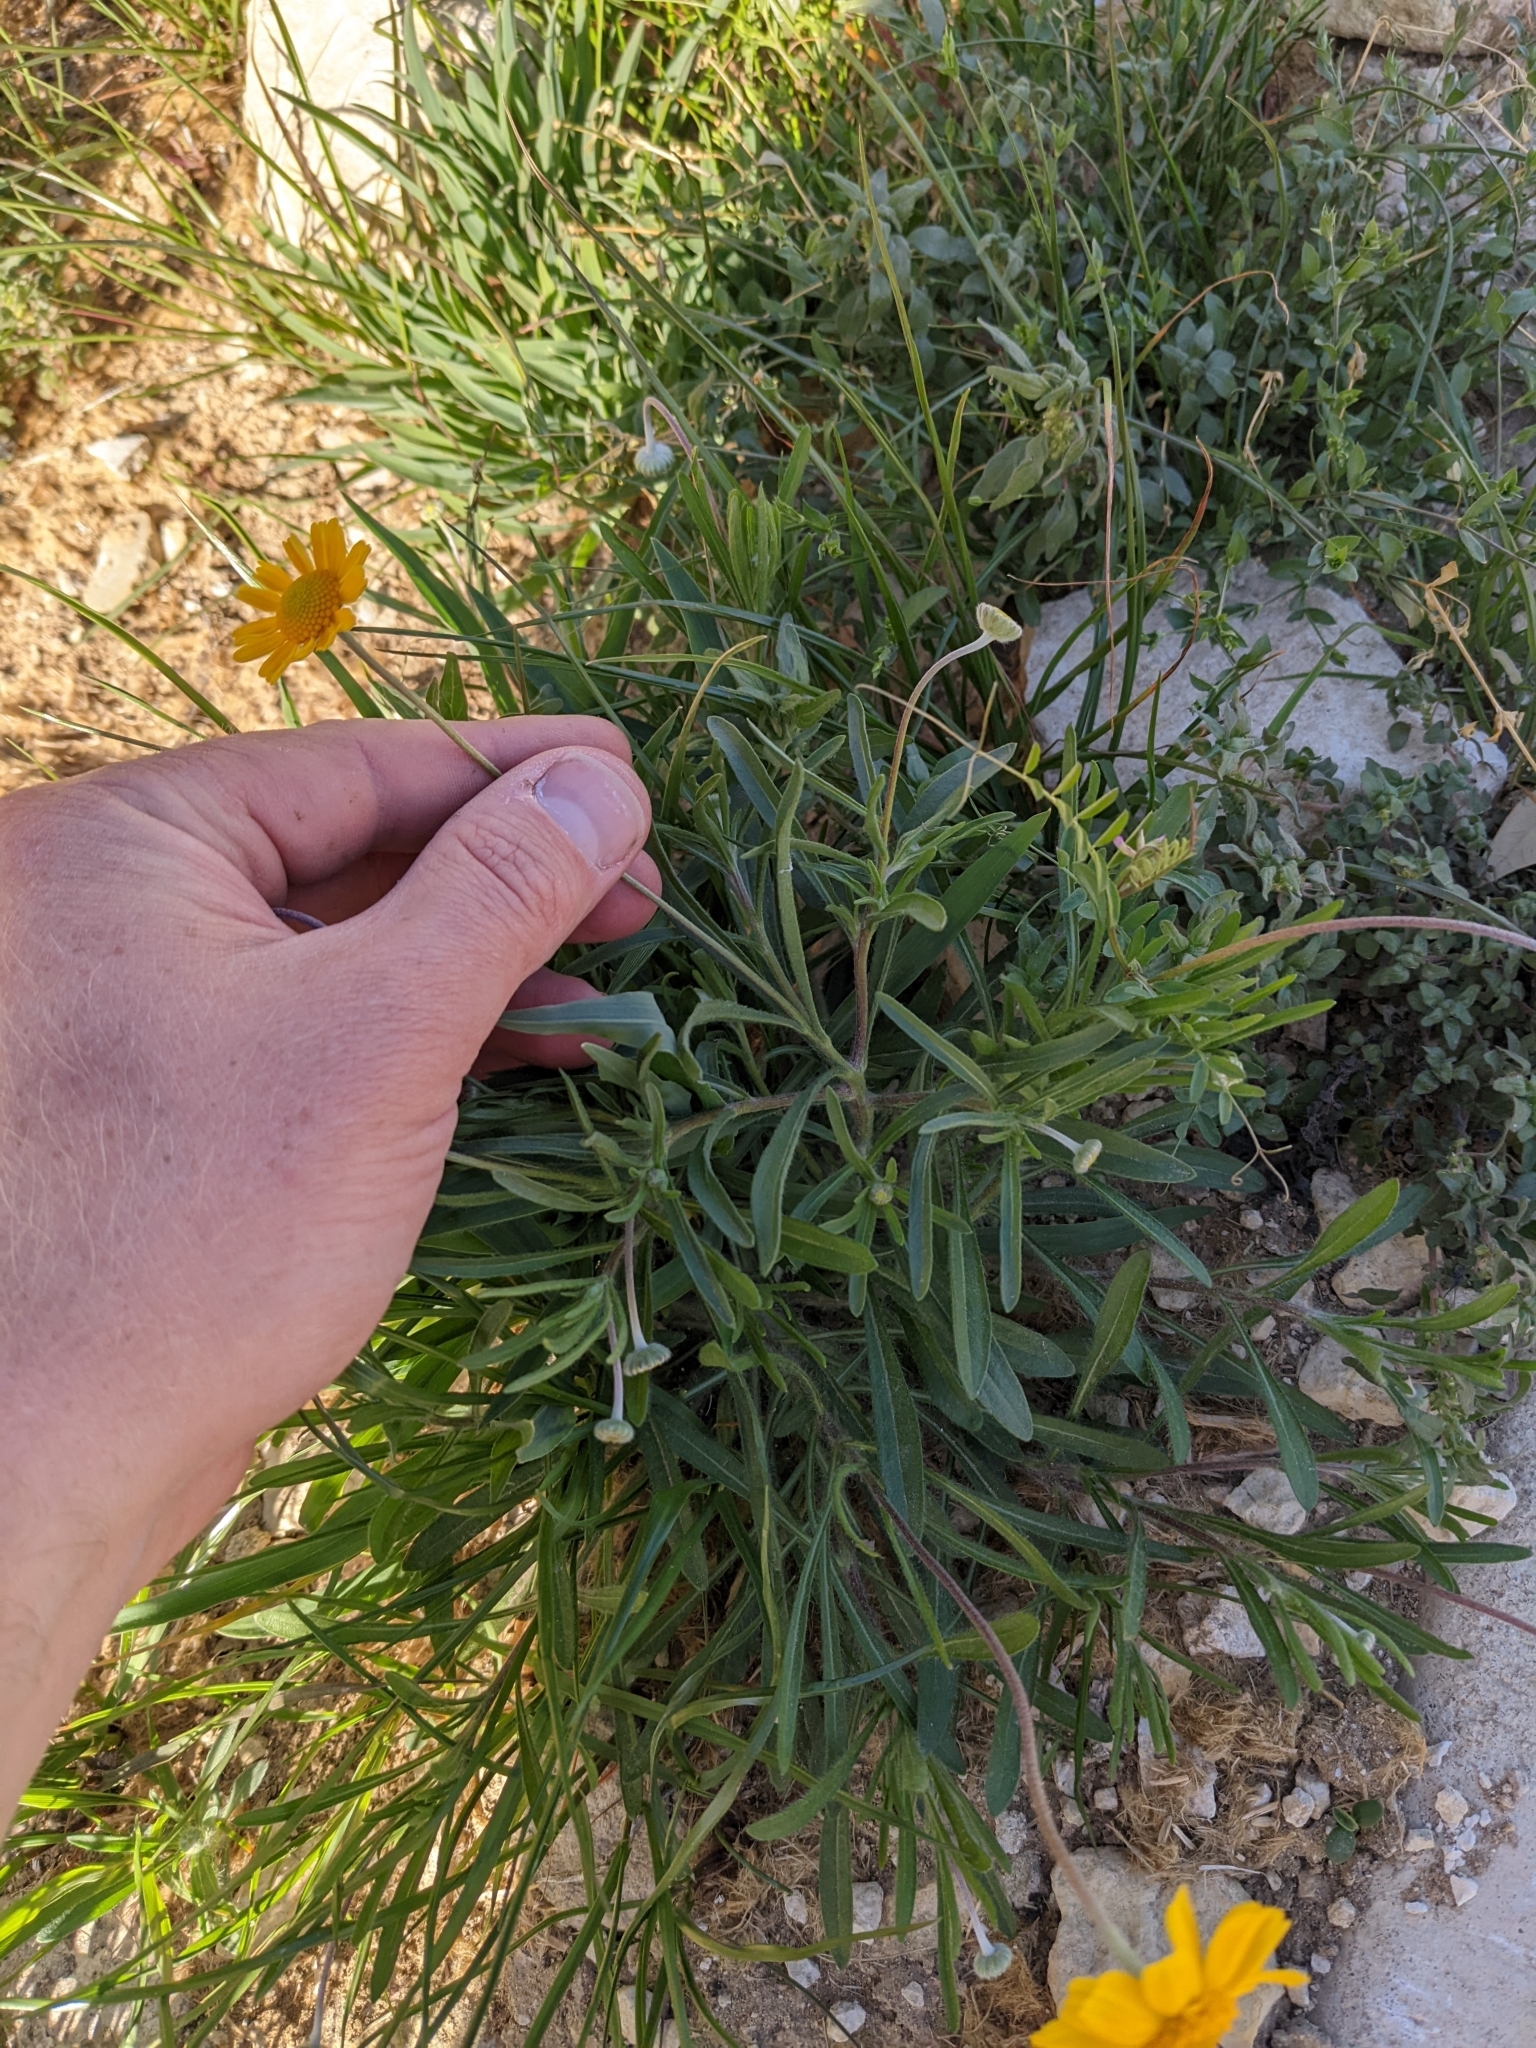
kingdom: Plantae
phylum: Tracheophyta
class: Magnoliopsida
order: Asterales
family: Asteraceae
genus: Tetraneuris
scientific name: Tetraneuris linearifolia
